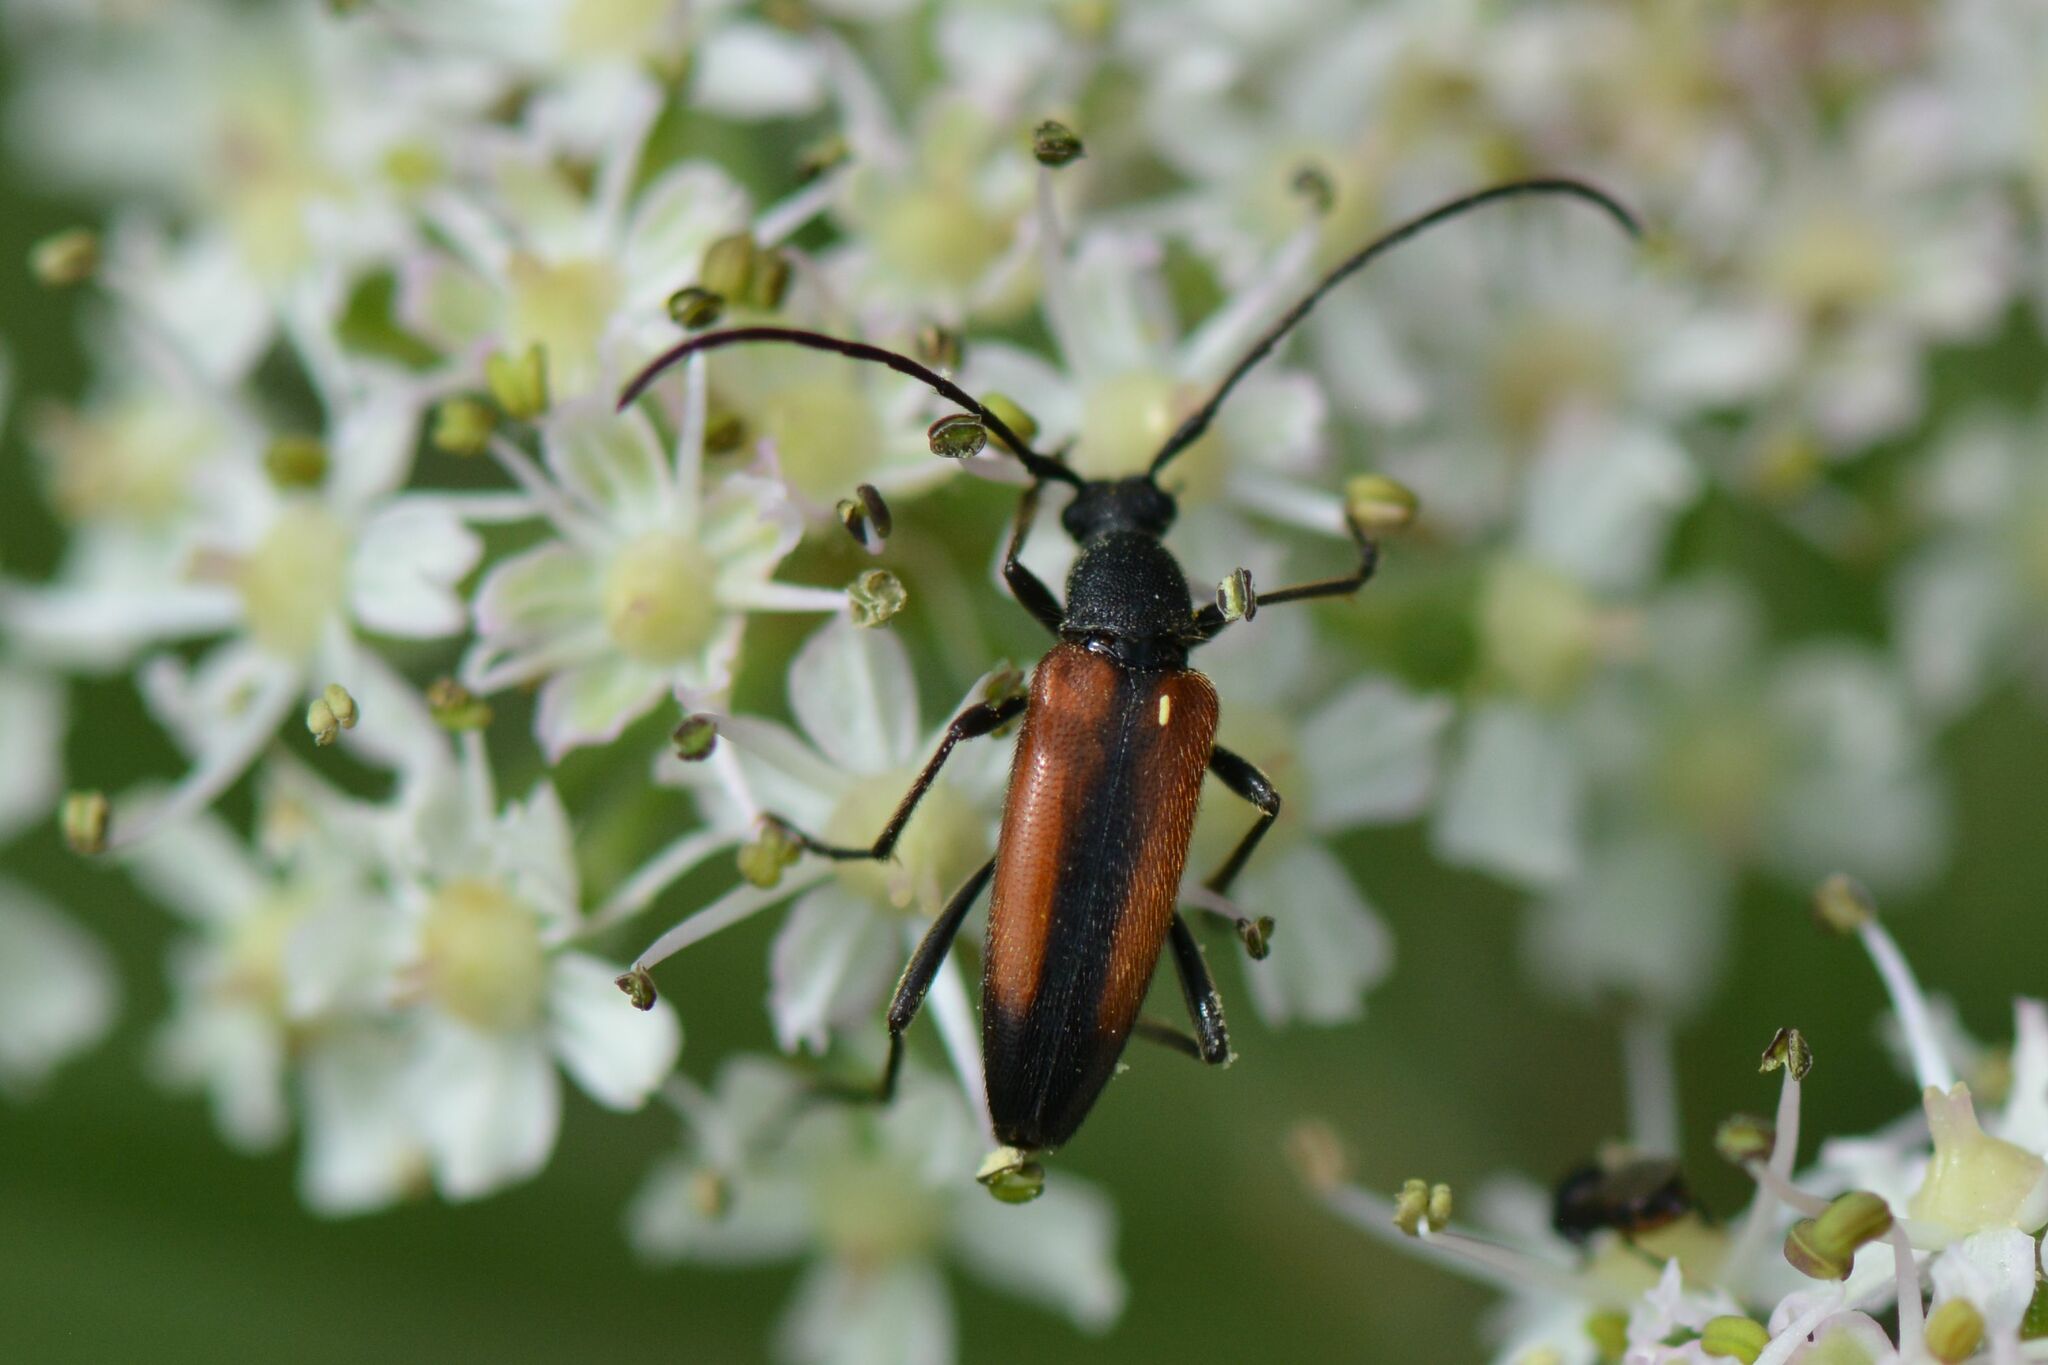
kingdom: Animalia
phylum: Arthropoda
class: Insecta
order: Coleoptera
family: Cerambycidae
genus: Stenurella
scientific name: Stenurella melanura
